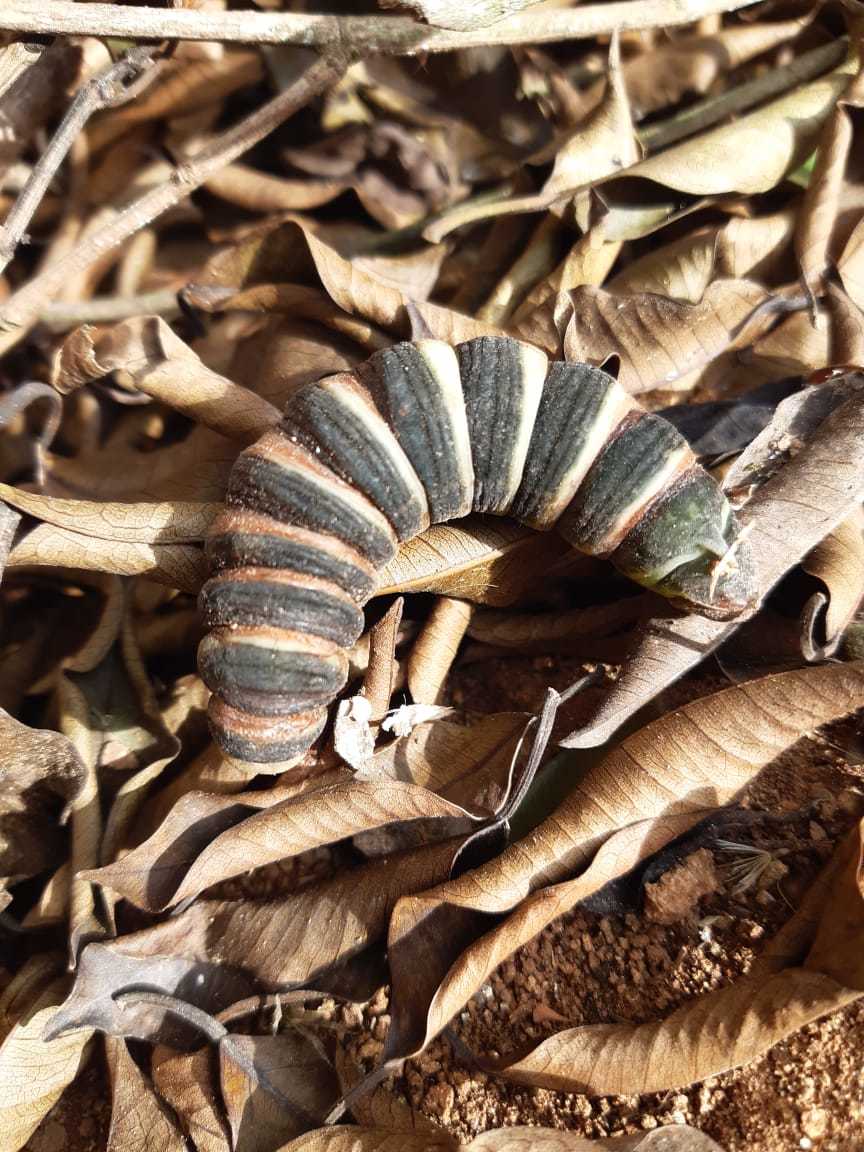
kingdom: Animalia
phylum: Arthropoda
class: Insecta
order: Lepidoptera
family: Sphingidae
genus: Pachylia
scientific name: Pachylia syces
